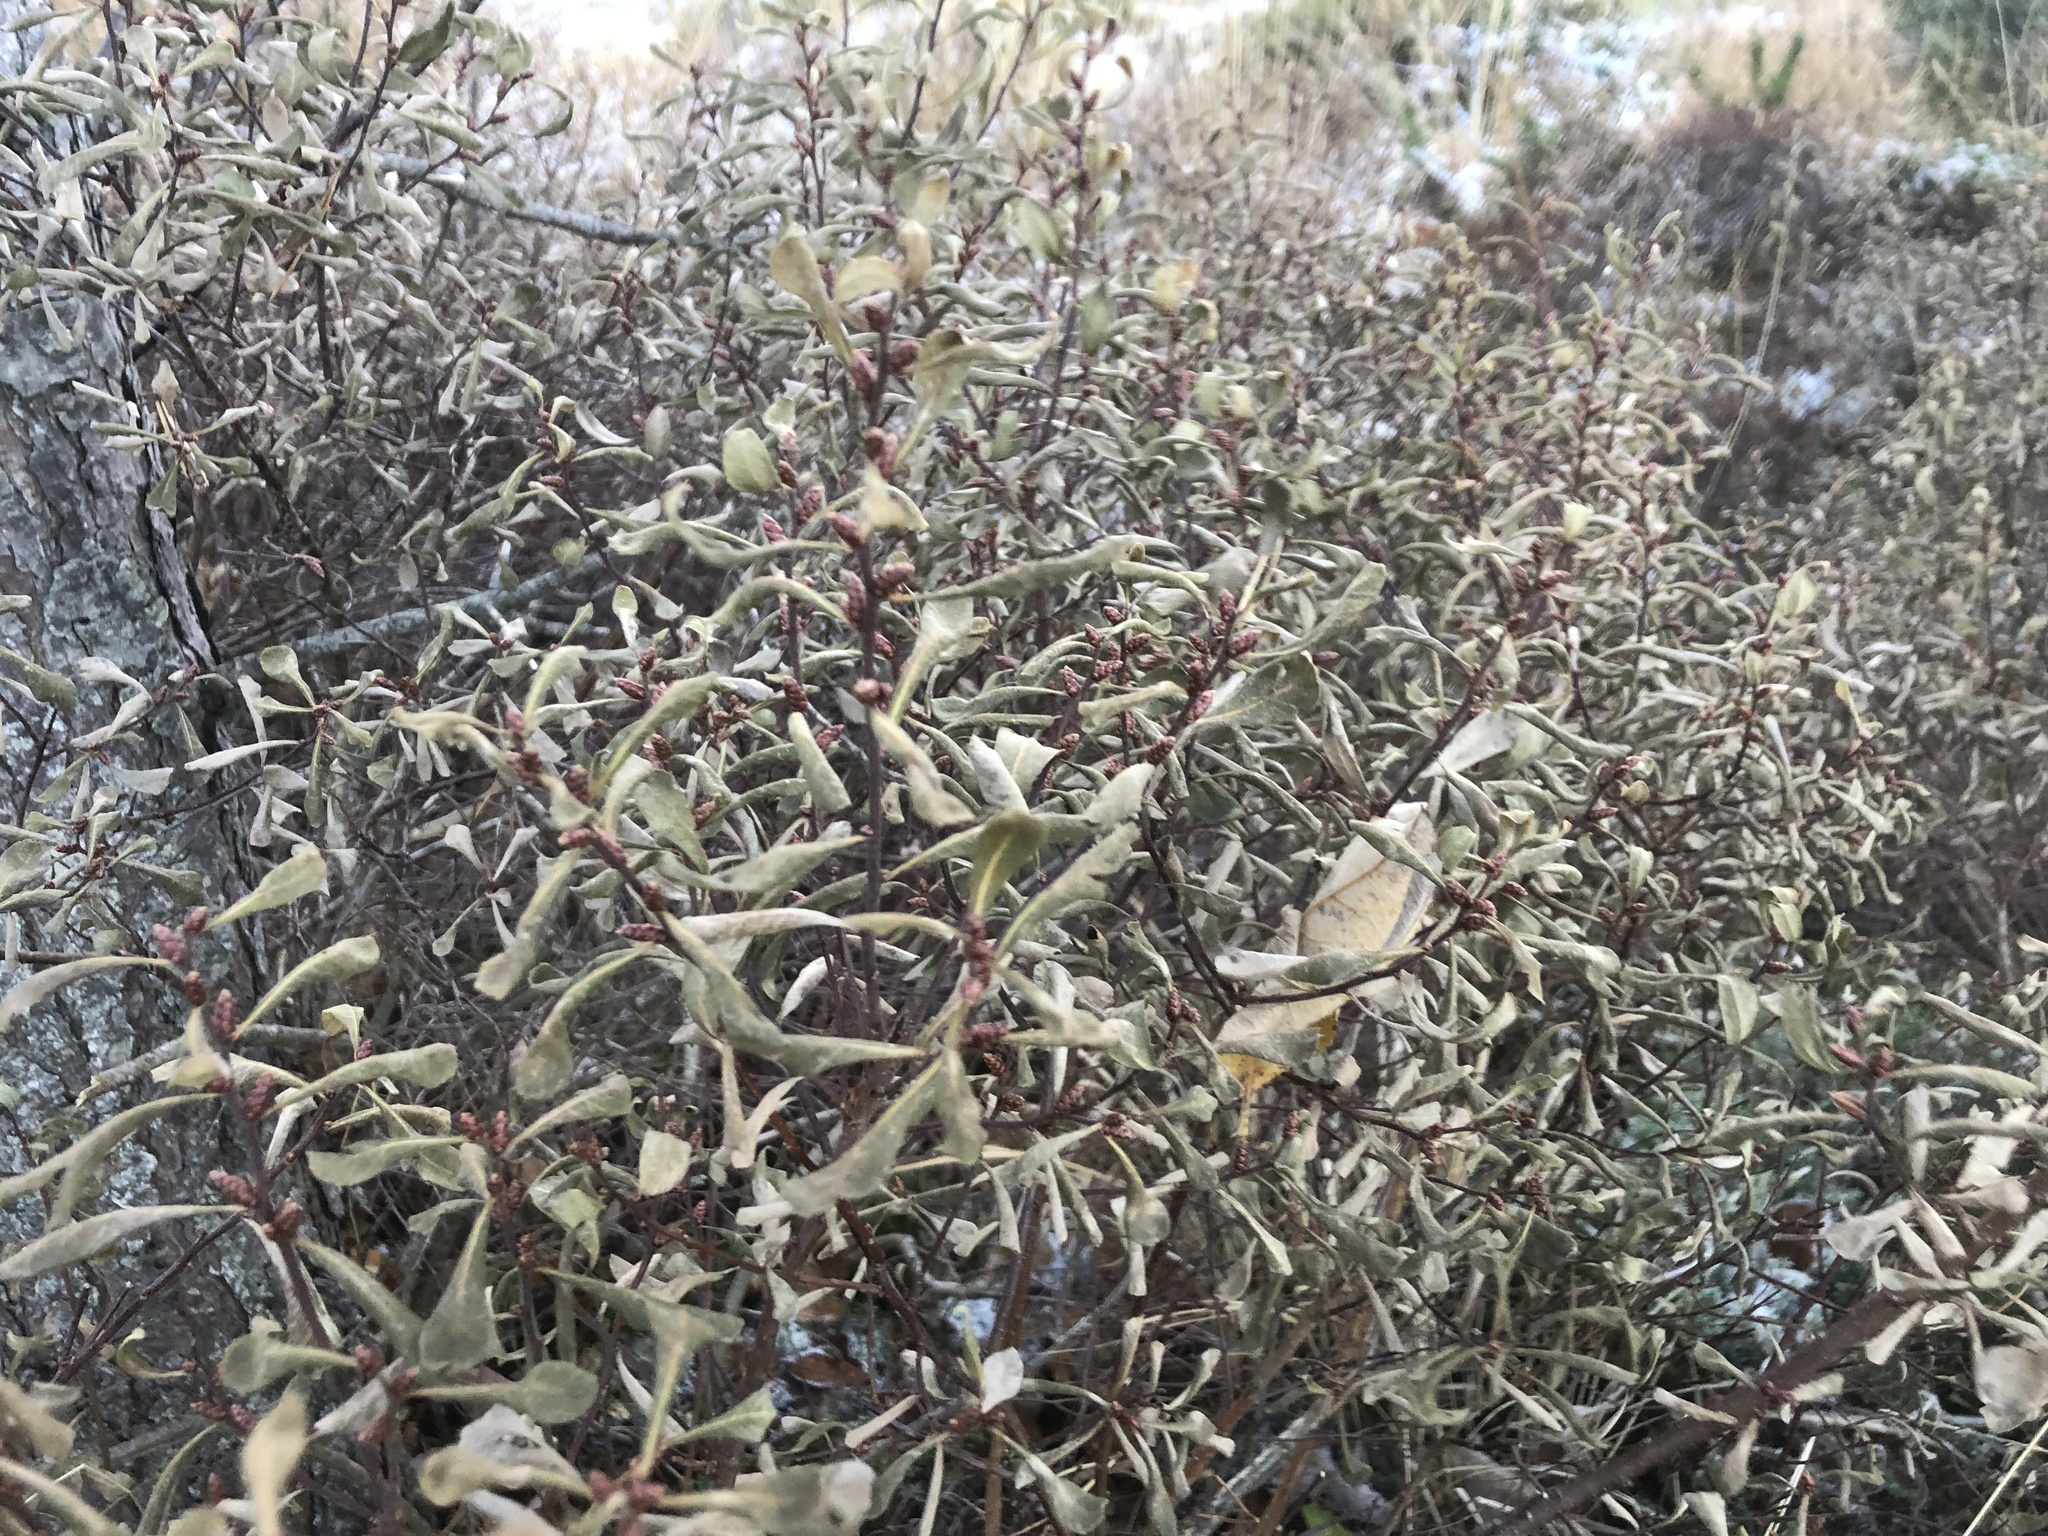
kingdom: Plantae
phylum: Tracheophyta
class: Magnoliopsida
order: Fagales
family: Myricaceae
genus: Myrica
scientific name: Myrica gale
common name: Sweet gale
